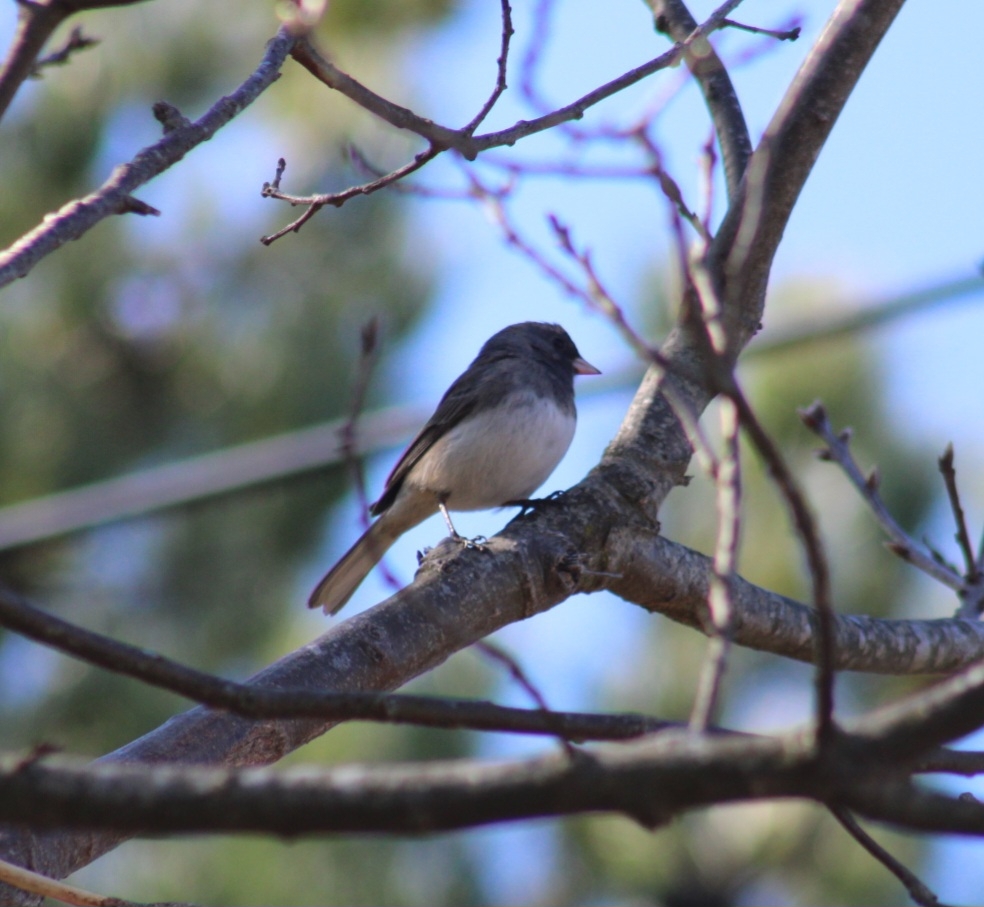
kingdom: Animalia
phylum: Chordata
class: Aves
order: Passeriformes
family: Passerellidae
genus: Junco
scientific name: Junco hyemalis
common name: Dark-eyed junco
